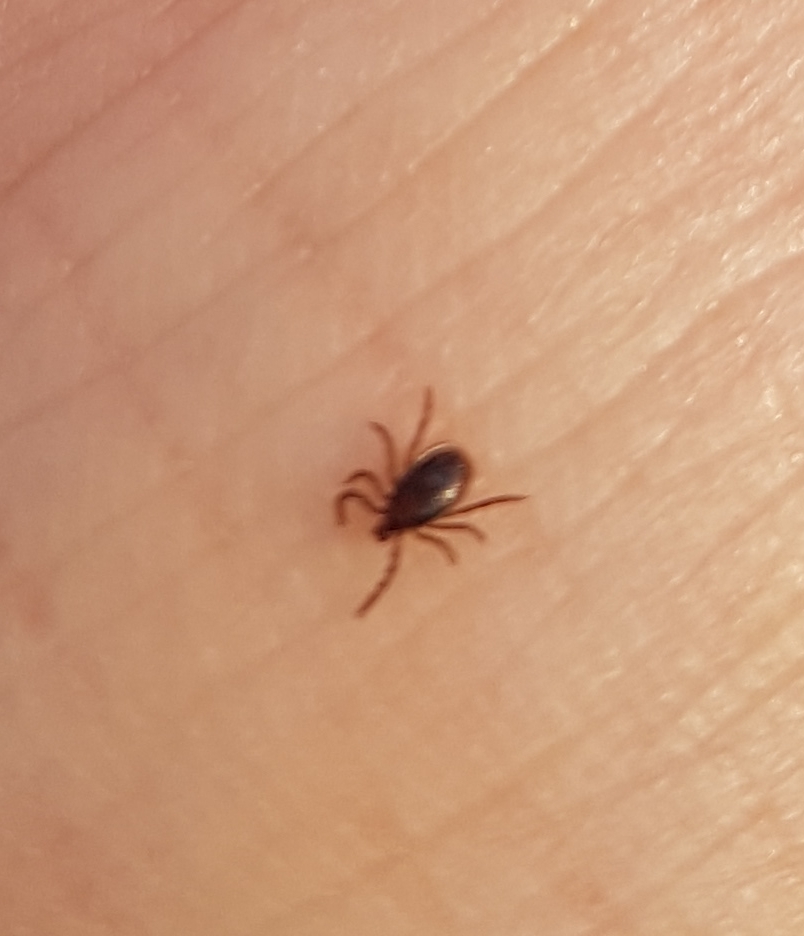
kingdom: Animalia
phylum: Arthropoda
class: Arachnida
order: Ixodida
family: Ixodidae
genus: Ixodes
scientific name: Ixodes ricinus
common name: Castor bean tick
